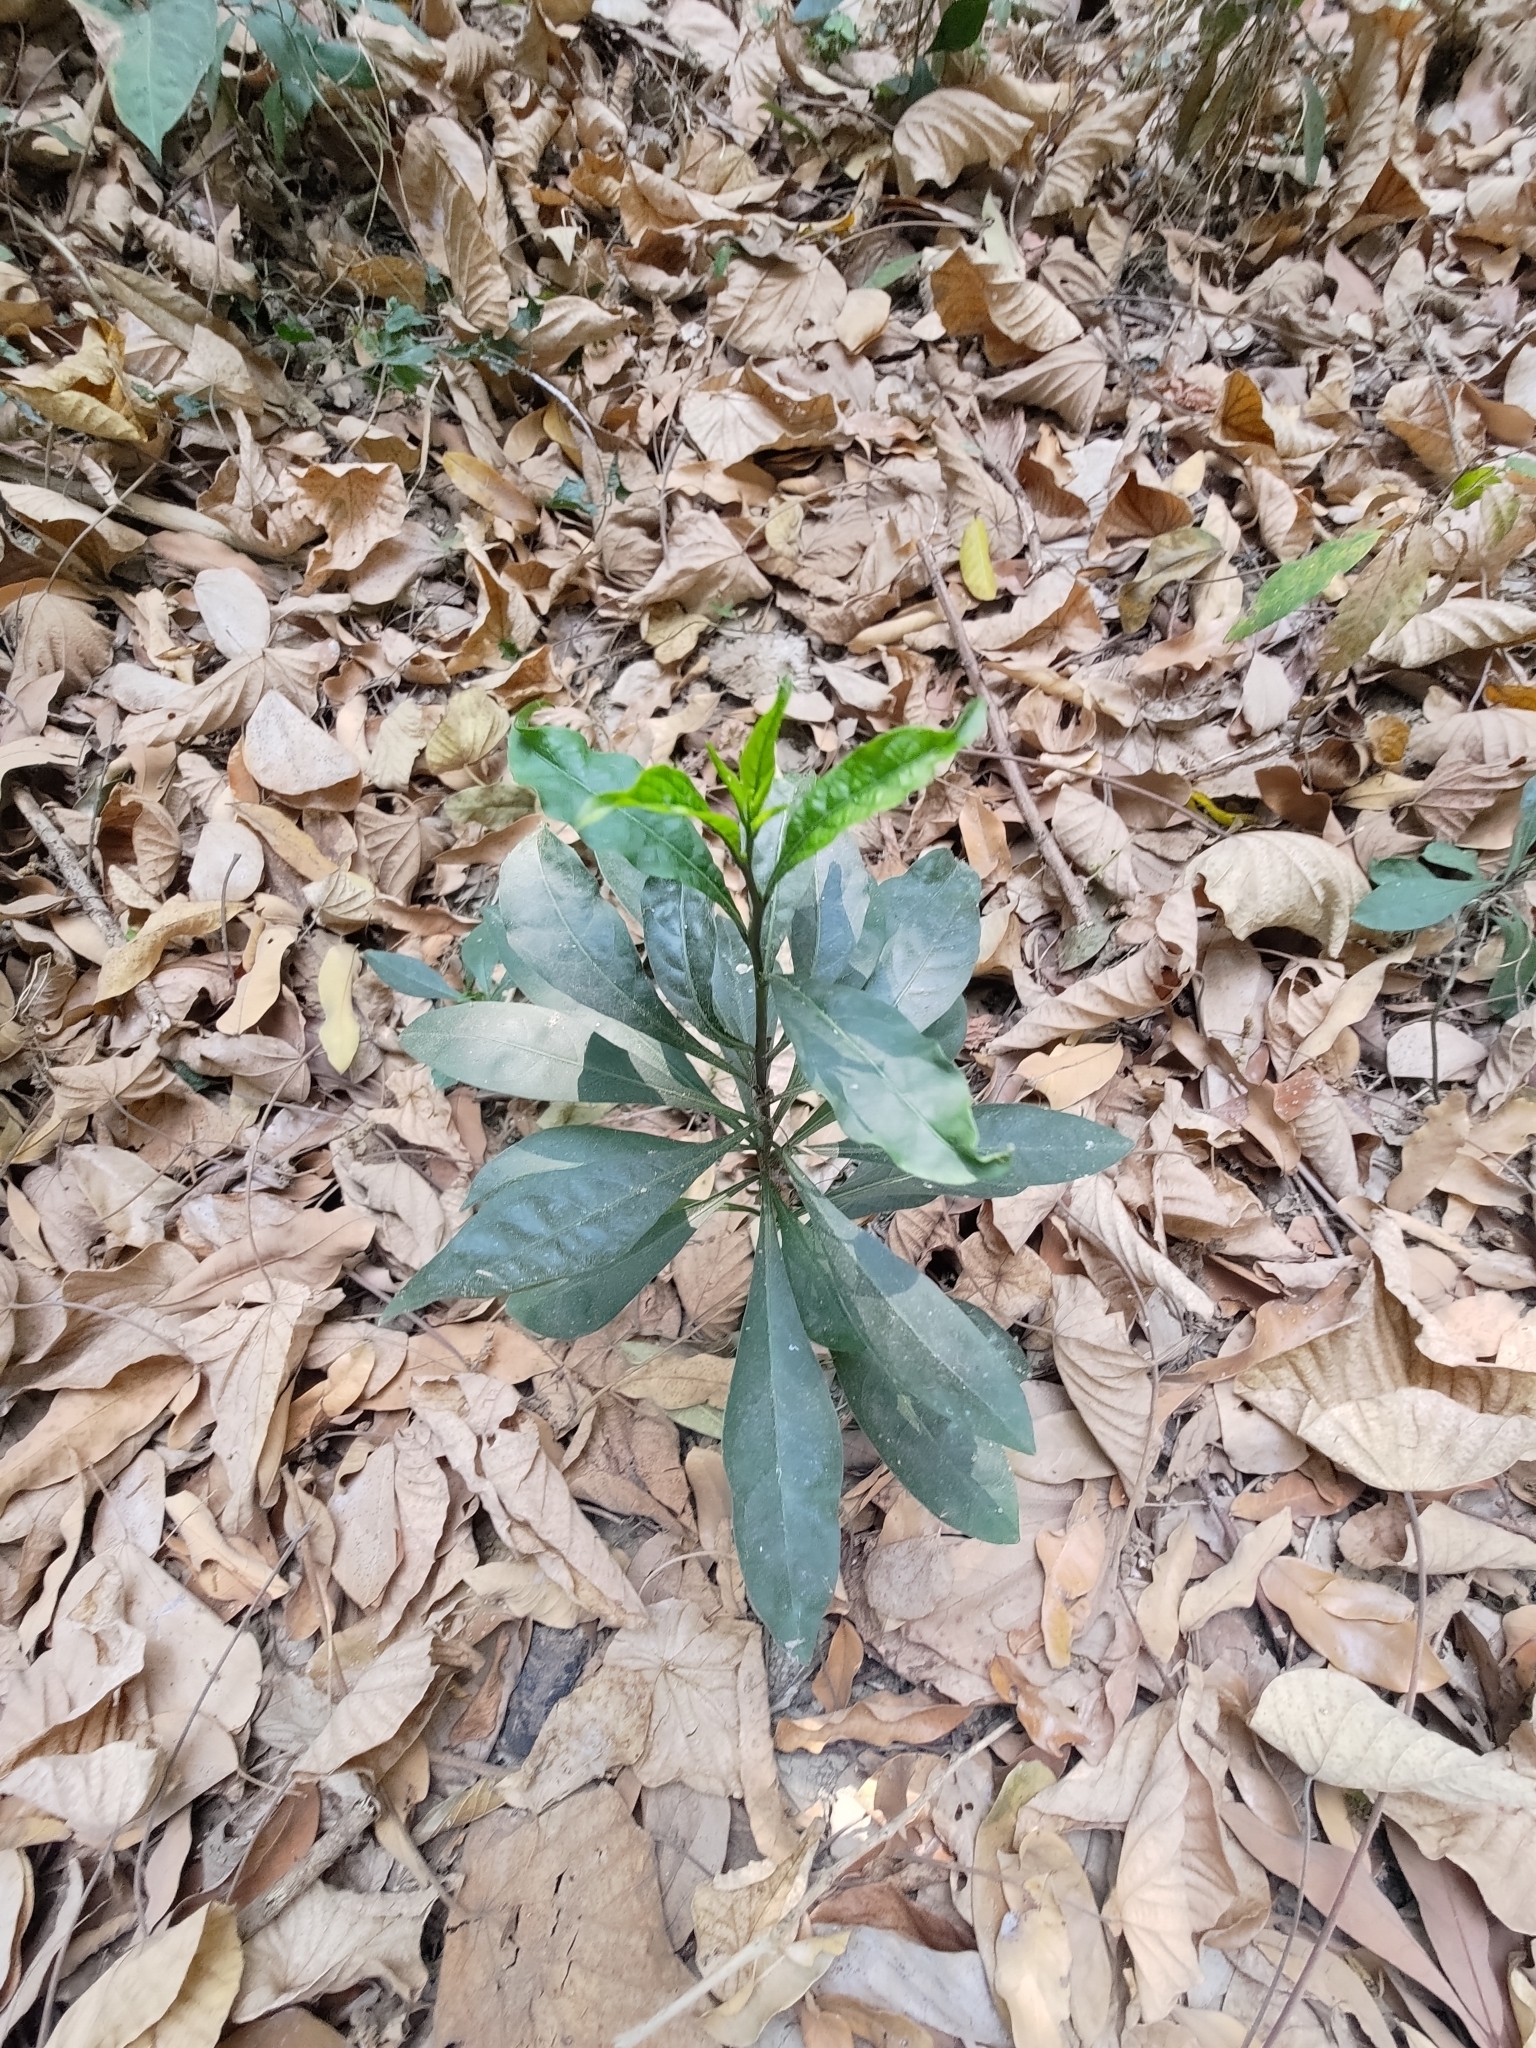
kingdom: Plantae
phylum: Tracheophyta
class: Magnoliopsida
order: Solanales
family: Solanaceae
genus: Solanum
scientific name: Solanum diphyllum
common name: Twoleaf nightshade
